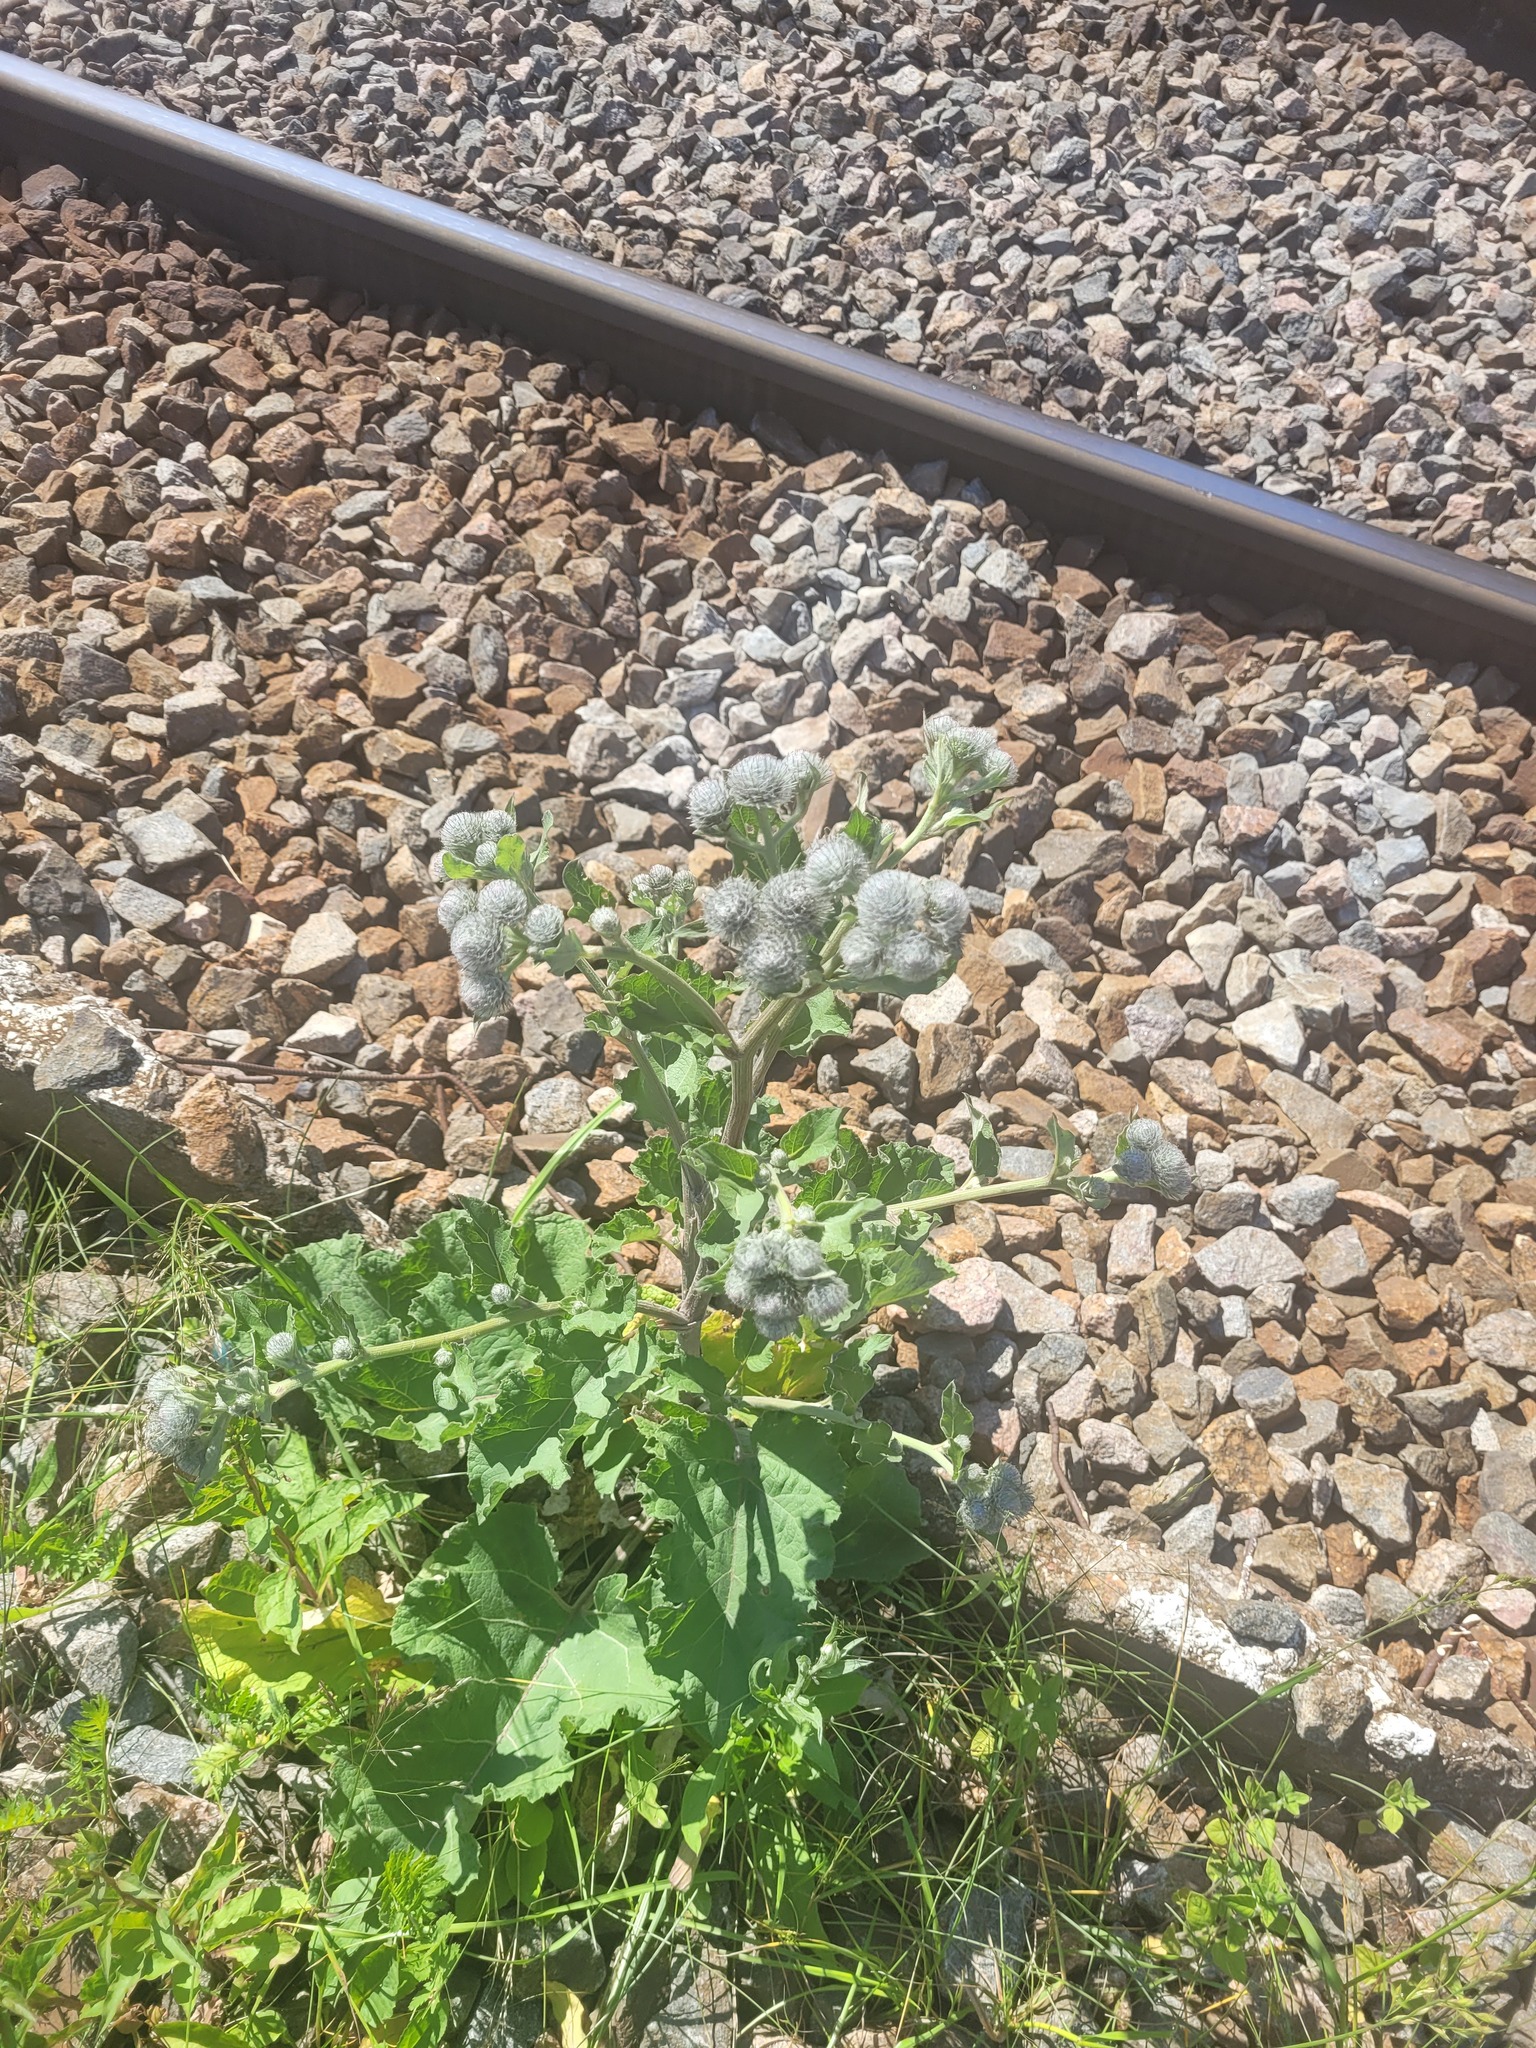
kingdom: Plantae
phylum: Tracheophyta
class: Magnoliopsida
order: Asterales
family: Asteraceae
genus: Arctium
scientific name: Arctium tomentosum
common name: Woolly burdock
